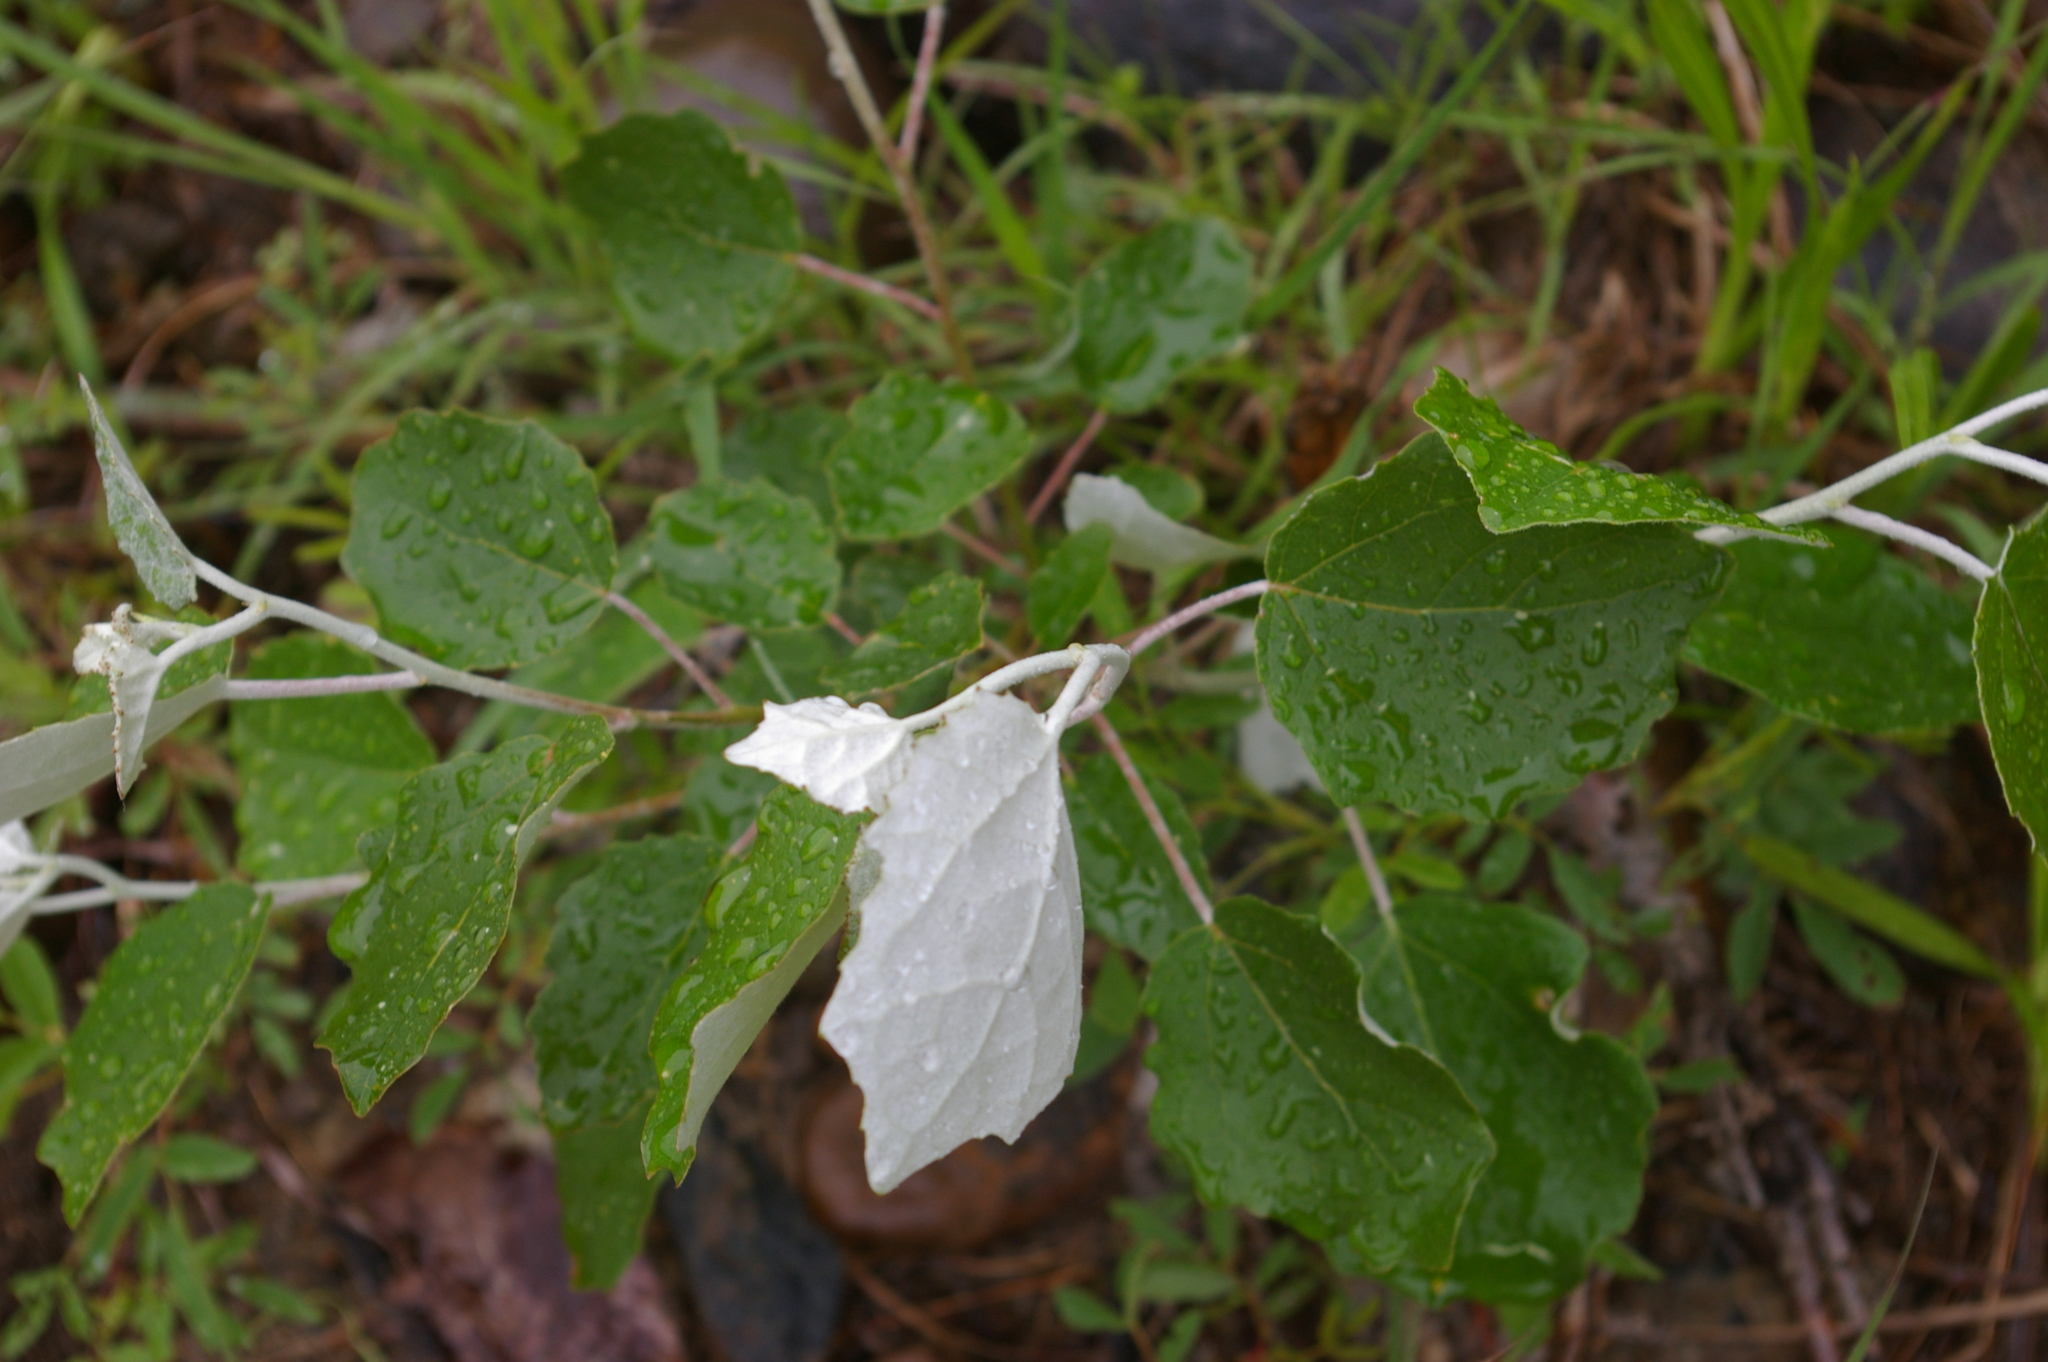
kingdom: Plantae
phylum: Tracheophyta
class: Magnoliopsida
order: Malpighiales
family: Salicaceae
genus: Populus
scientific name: Populus alba
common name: White poplar
